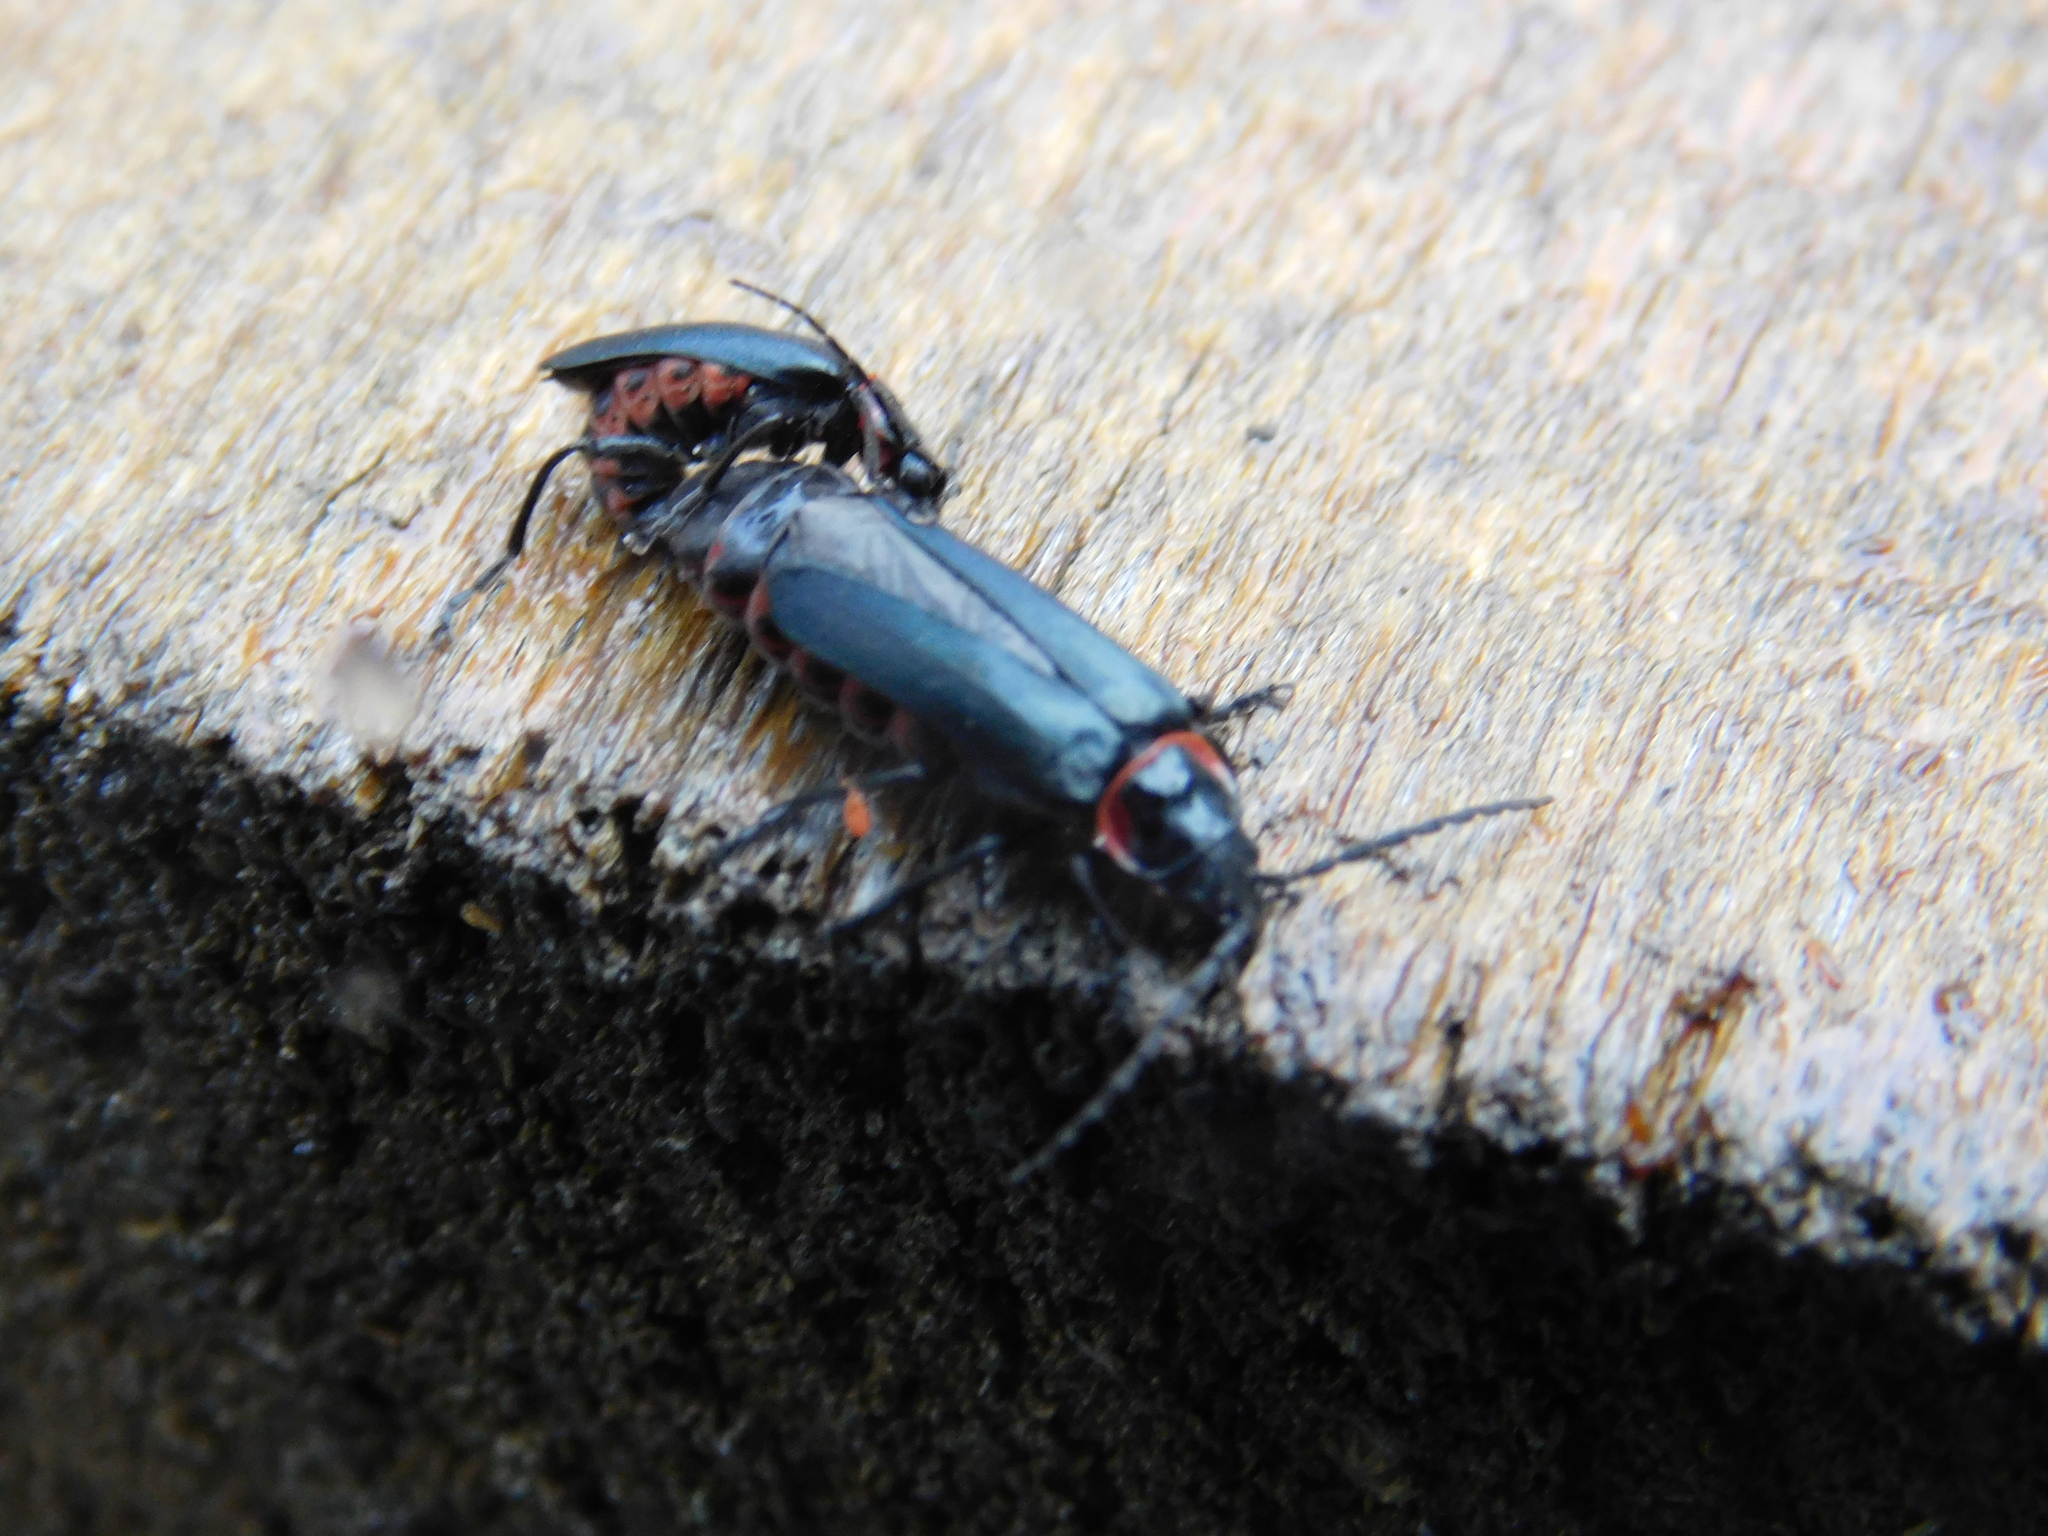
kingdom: Animalia
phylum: Arthropoda
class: Insecta
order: Coleoptera
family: Cantharidae
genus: Chauliognathus
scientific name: Chauliognathus
